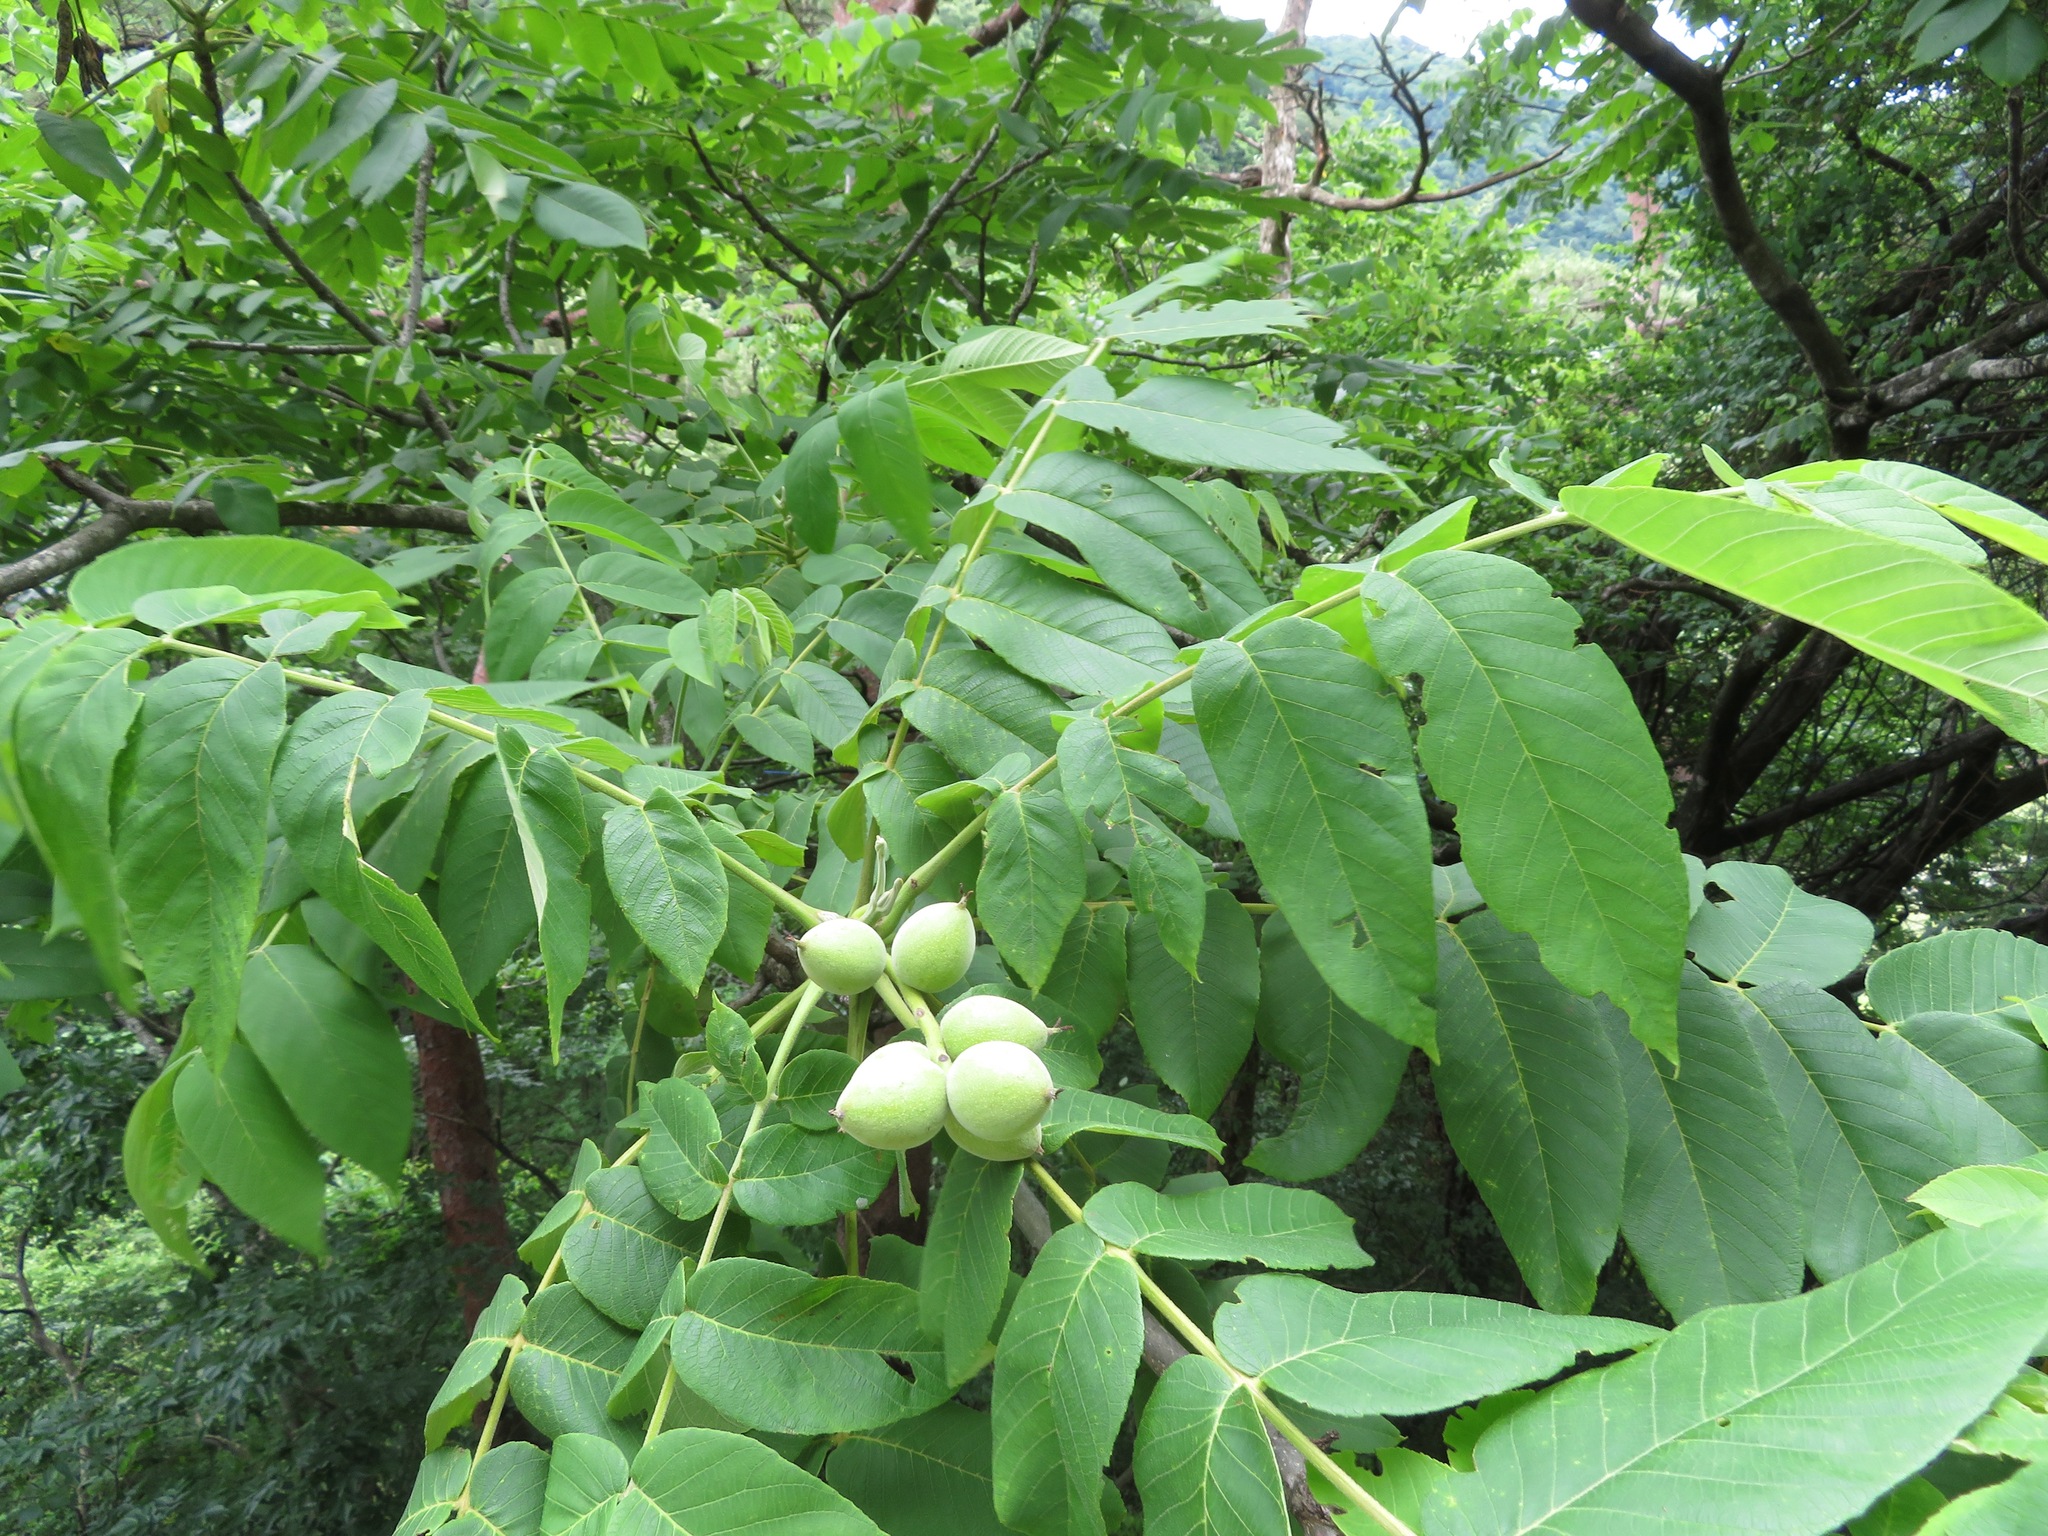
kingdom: Plantae
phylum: Tracheophyta
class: Magnoliopsida
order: Fagales
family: Juglandaceae
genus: Juglans
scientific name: Juglans ailantifolia
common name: Japanese walnut
